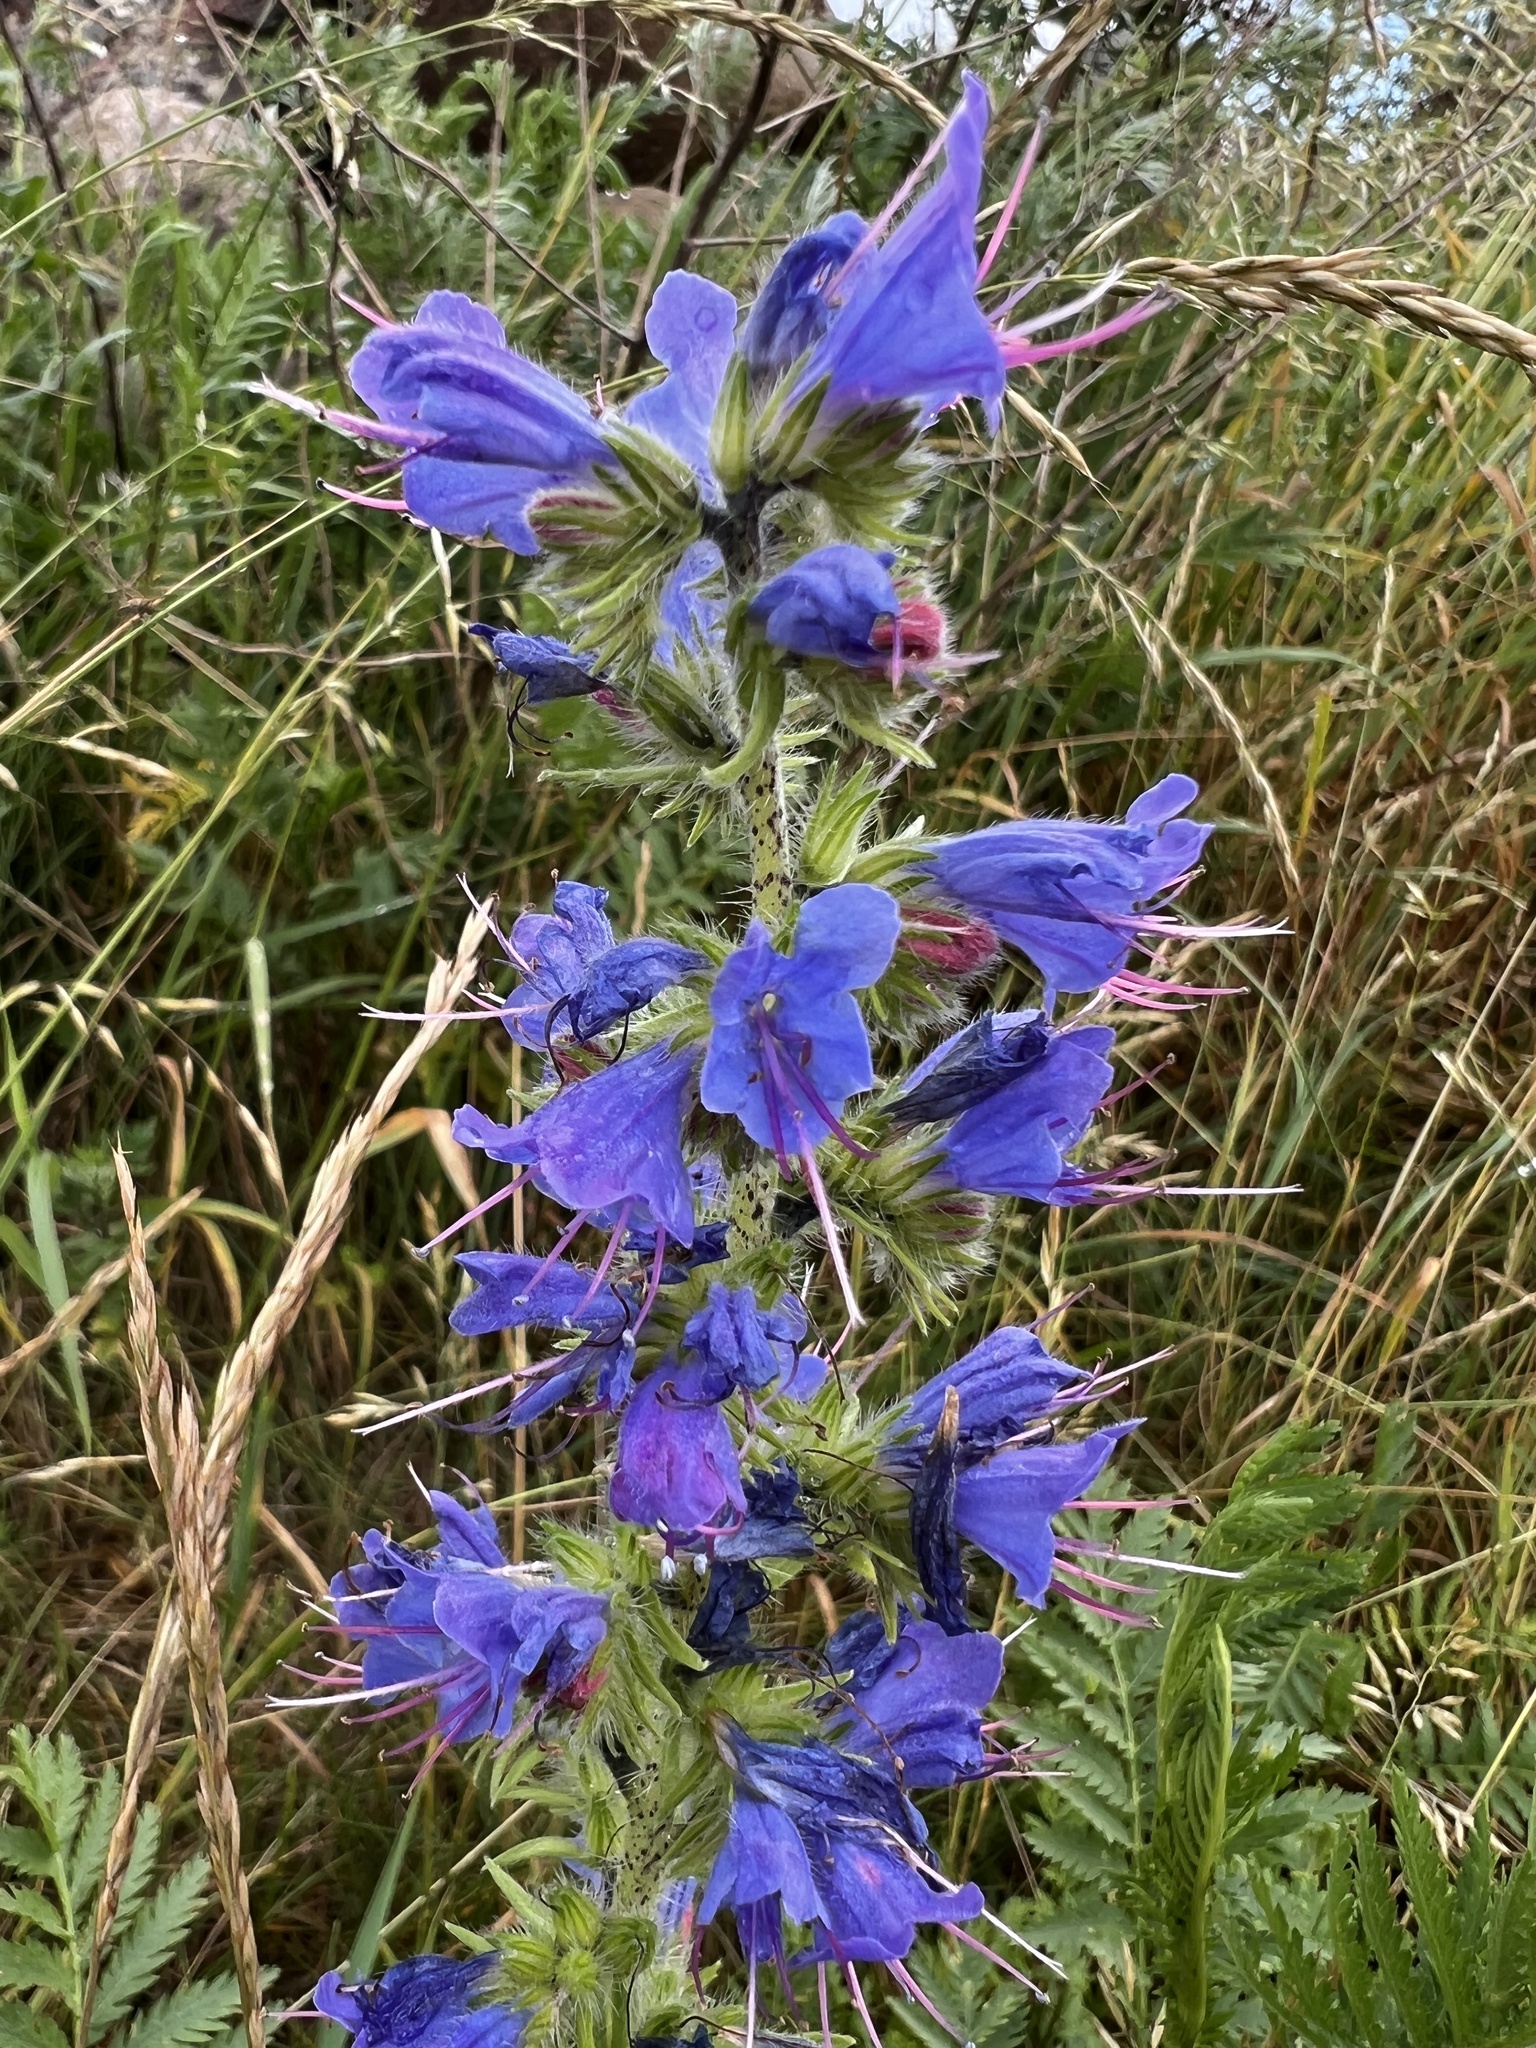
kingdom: Plantae
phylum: Tracheophyta
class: Magnoliopsida
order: Boraginales
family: Boraginaceae
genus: Echium
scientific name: Echium vulgare
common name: Common viper's bugloss
